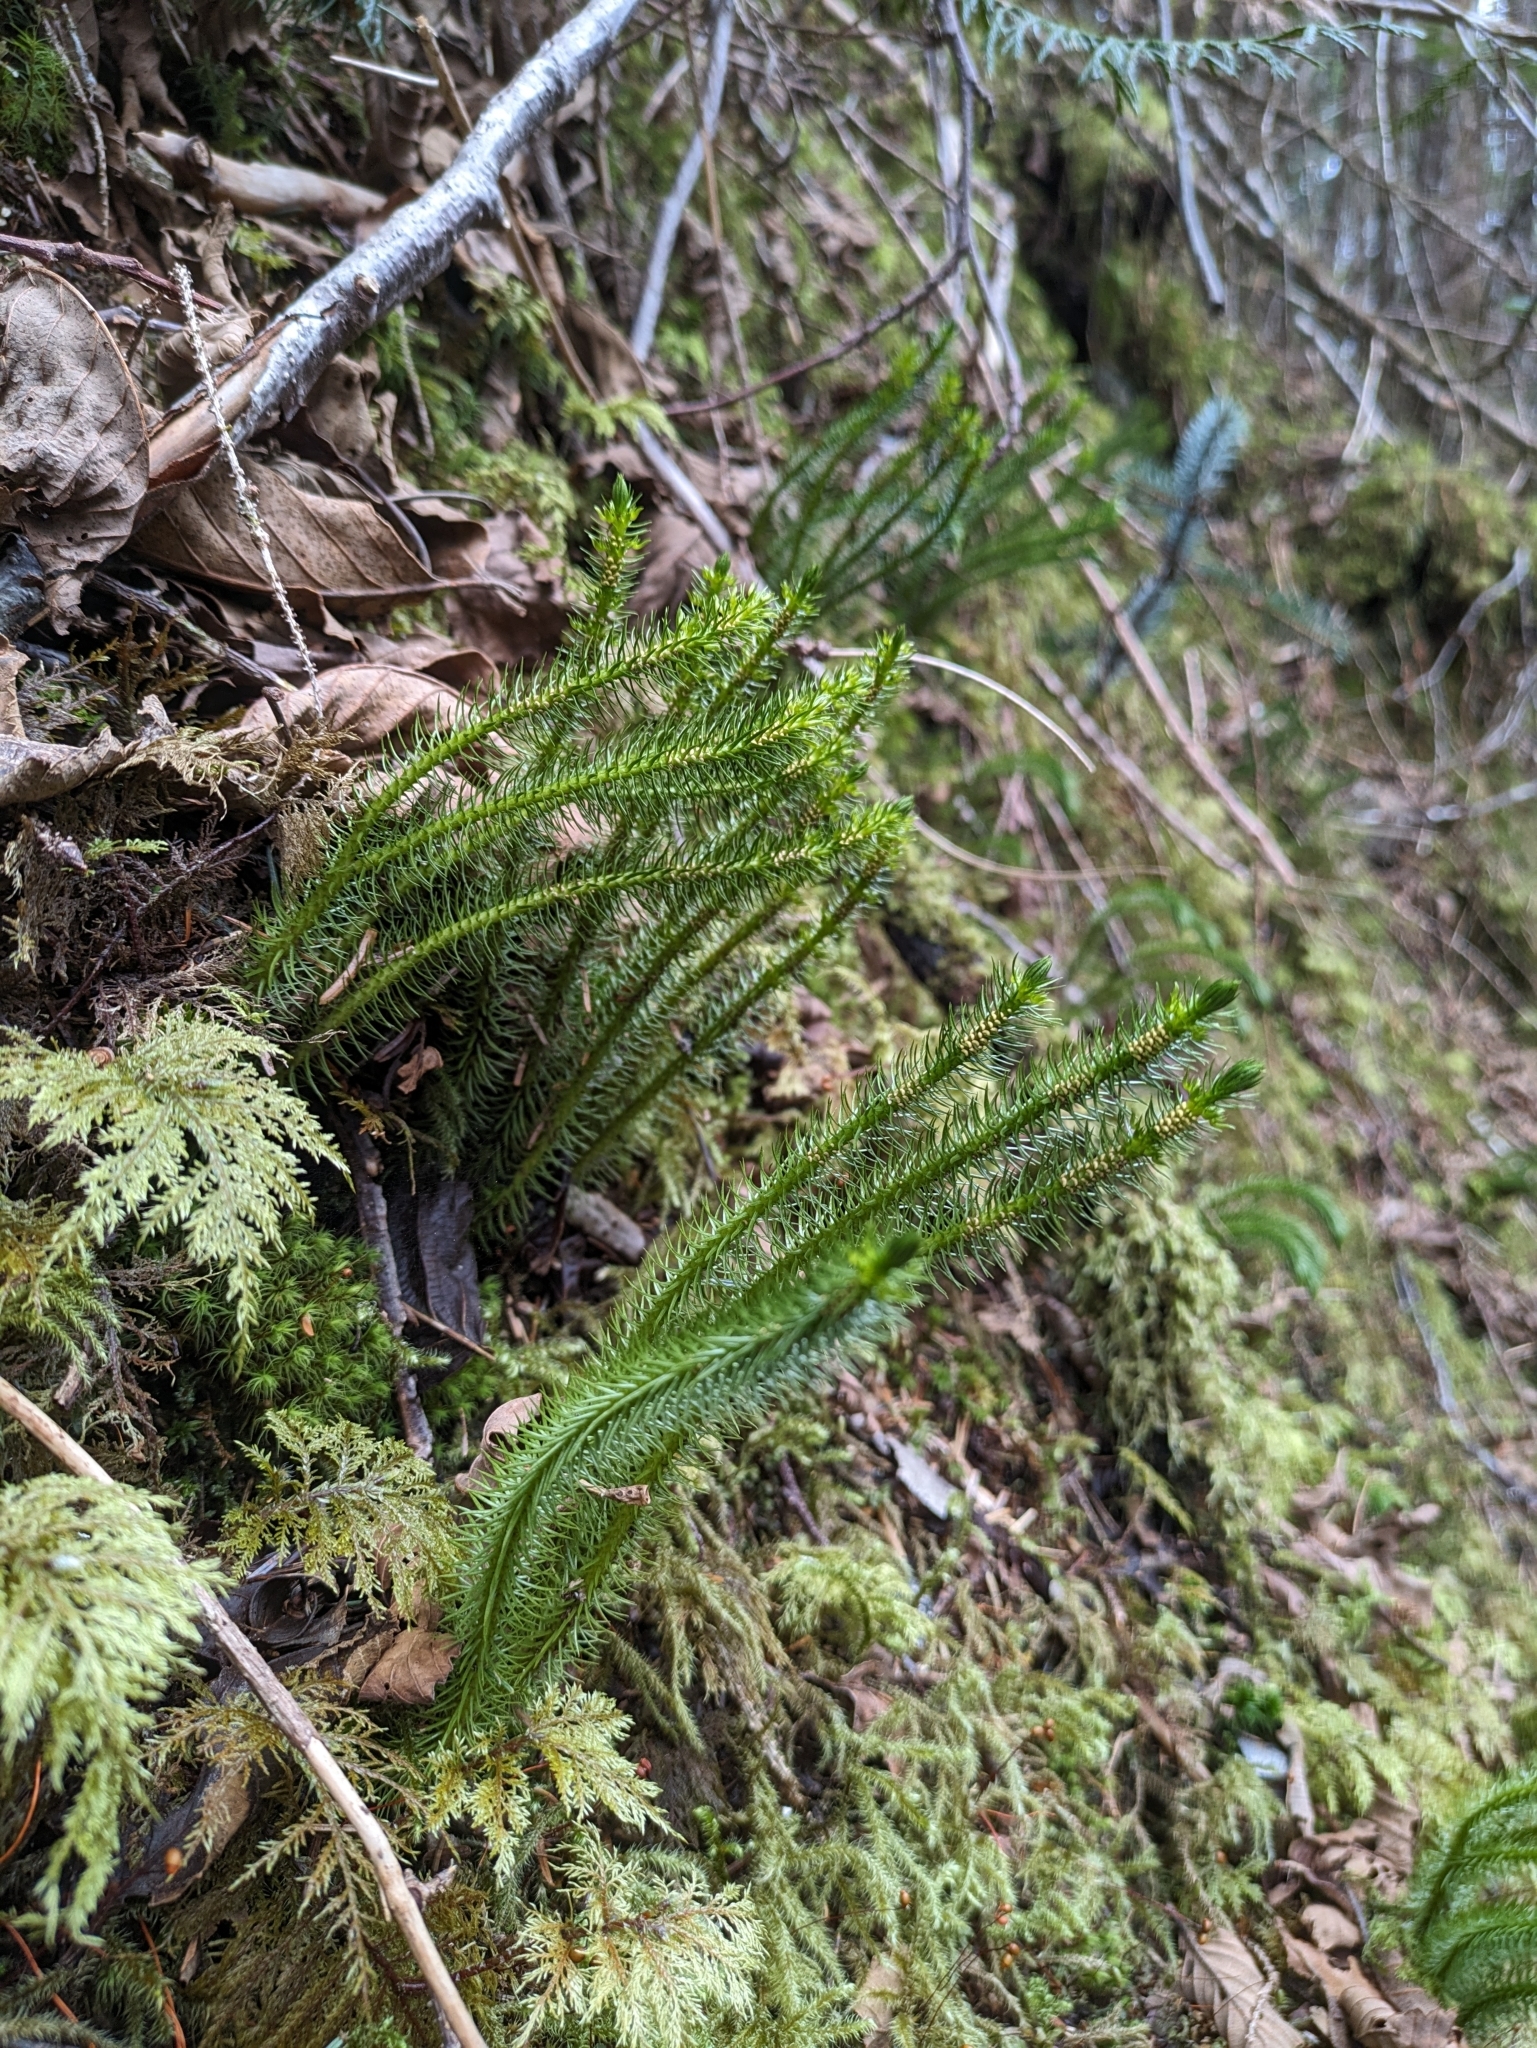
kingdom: Plantae
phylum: Tracheophyta
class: Lycopodiopsida
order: Lycopodiales
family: Lycopodiaceae
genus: Huperzia
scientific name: Huperzia miyoshiana
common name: Chinese clubmoss
